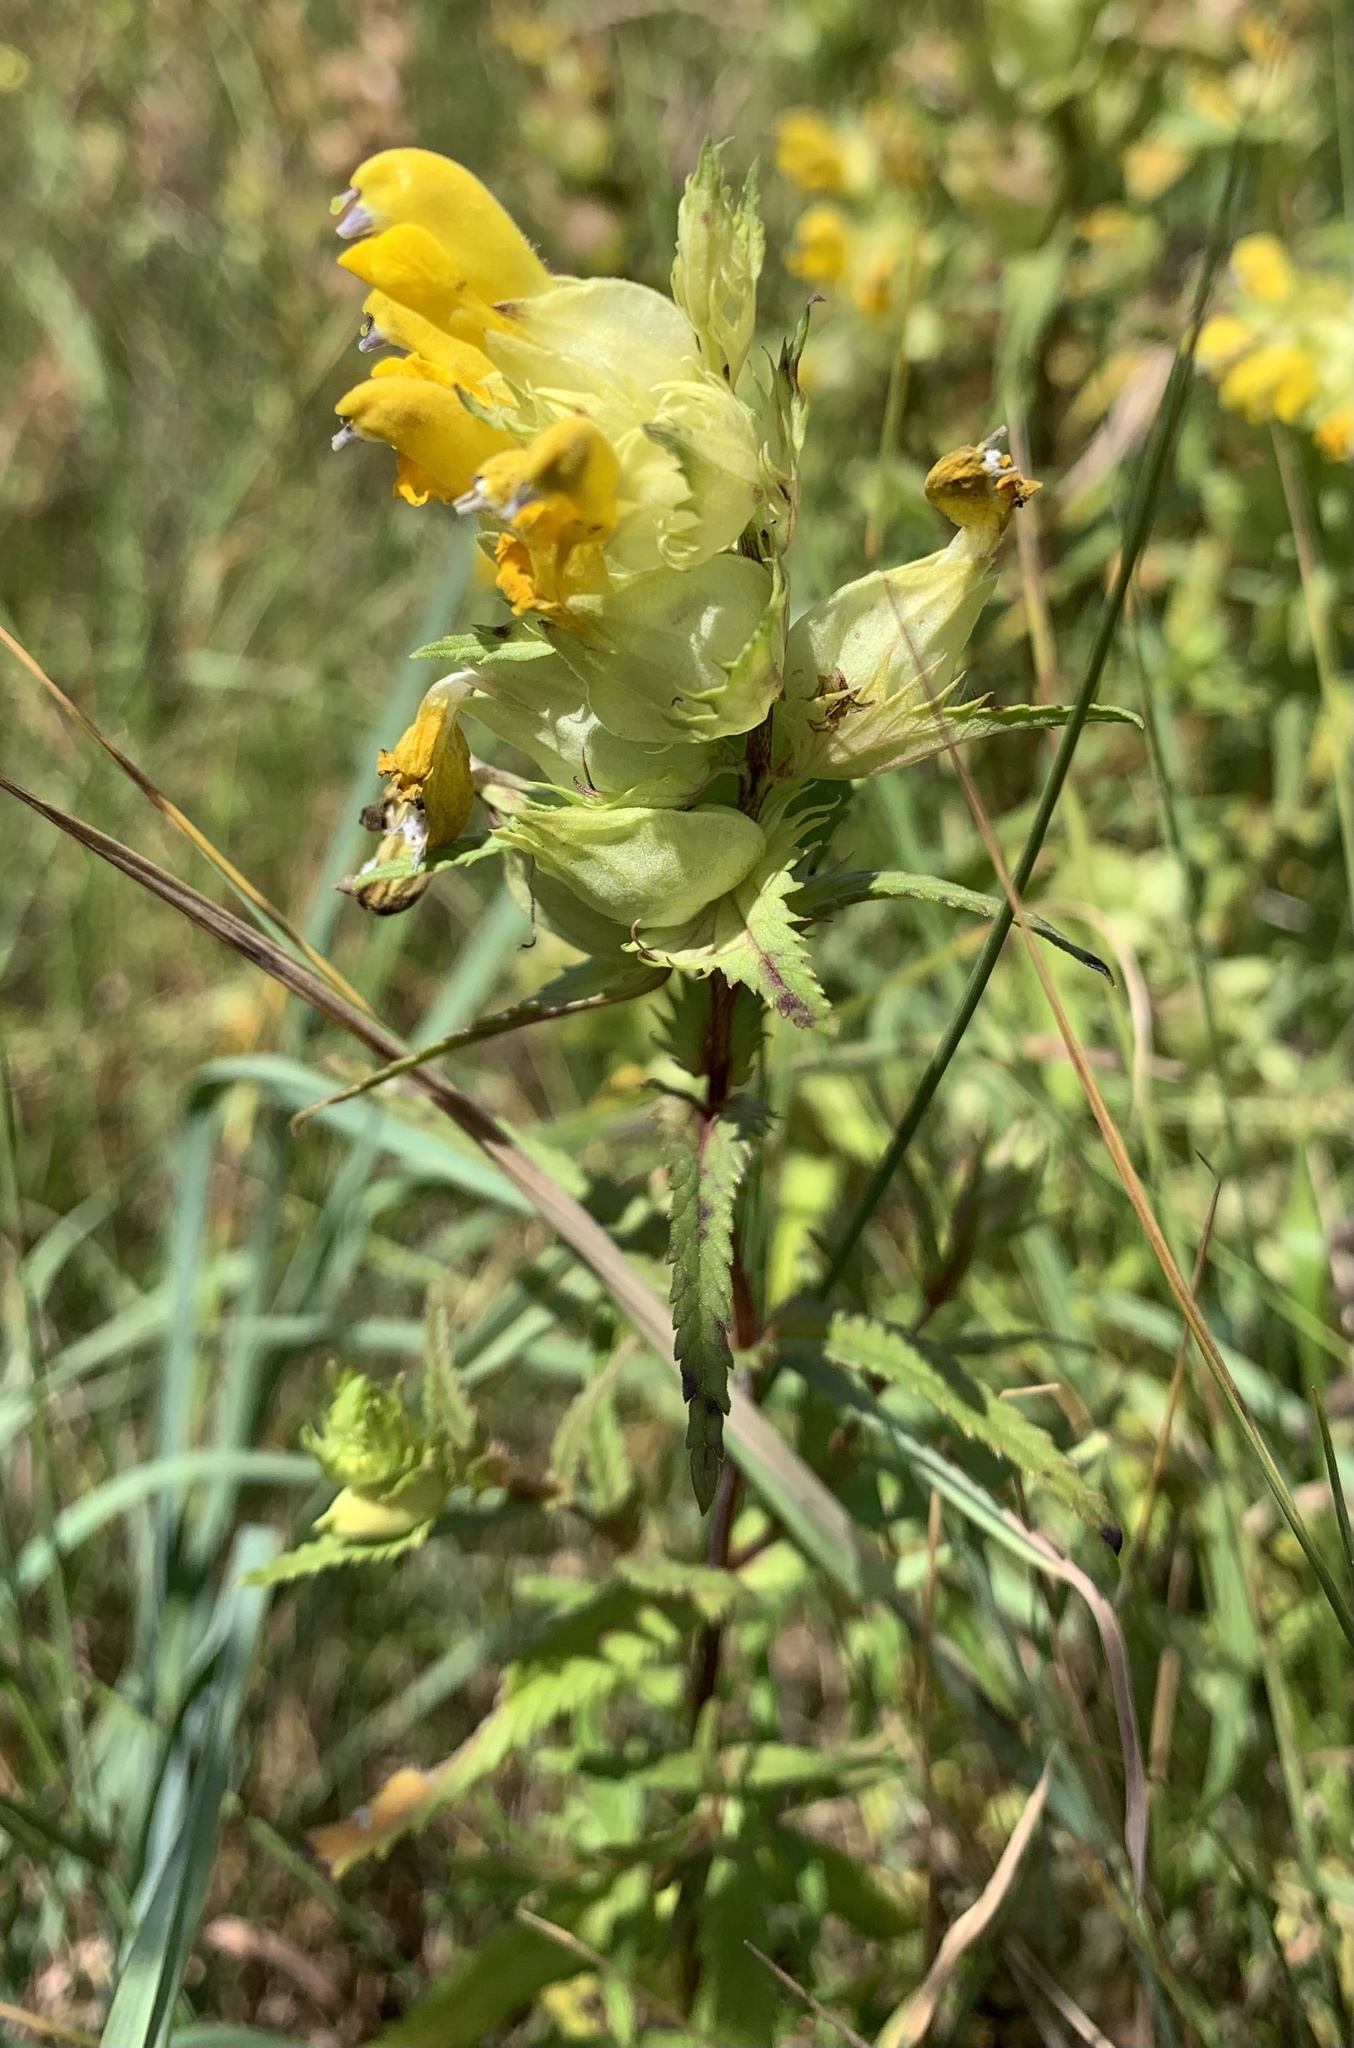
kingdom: Plantae
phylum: Tracheophyta
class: Magnoliopsida
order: Lamiales
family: Orobanchaceae
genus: Rhinanthus
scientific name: Rhinanthus serotinus
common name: Late-flowering yellow rattle
